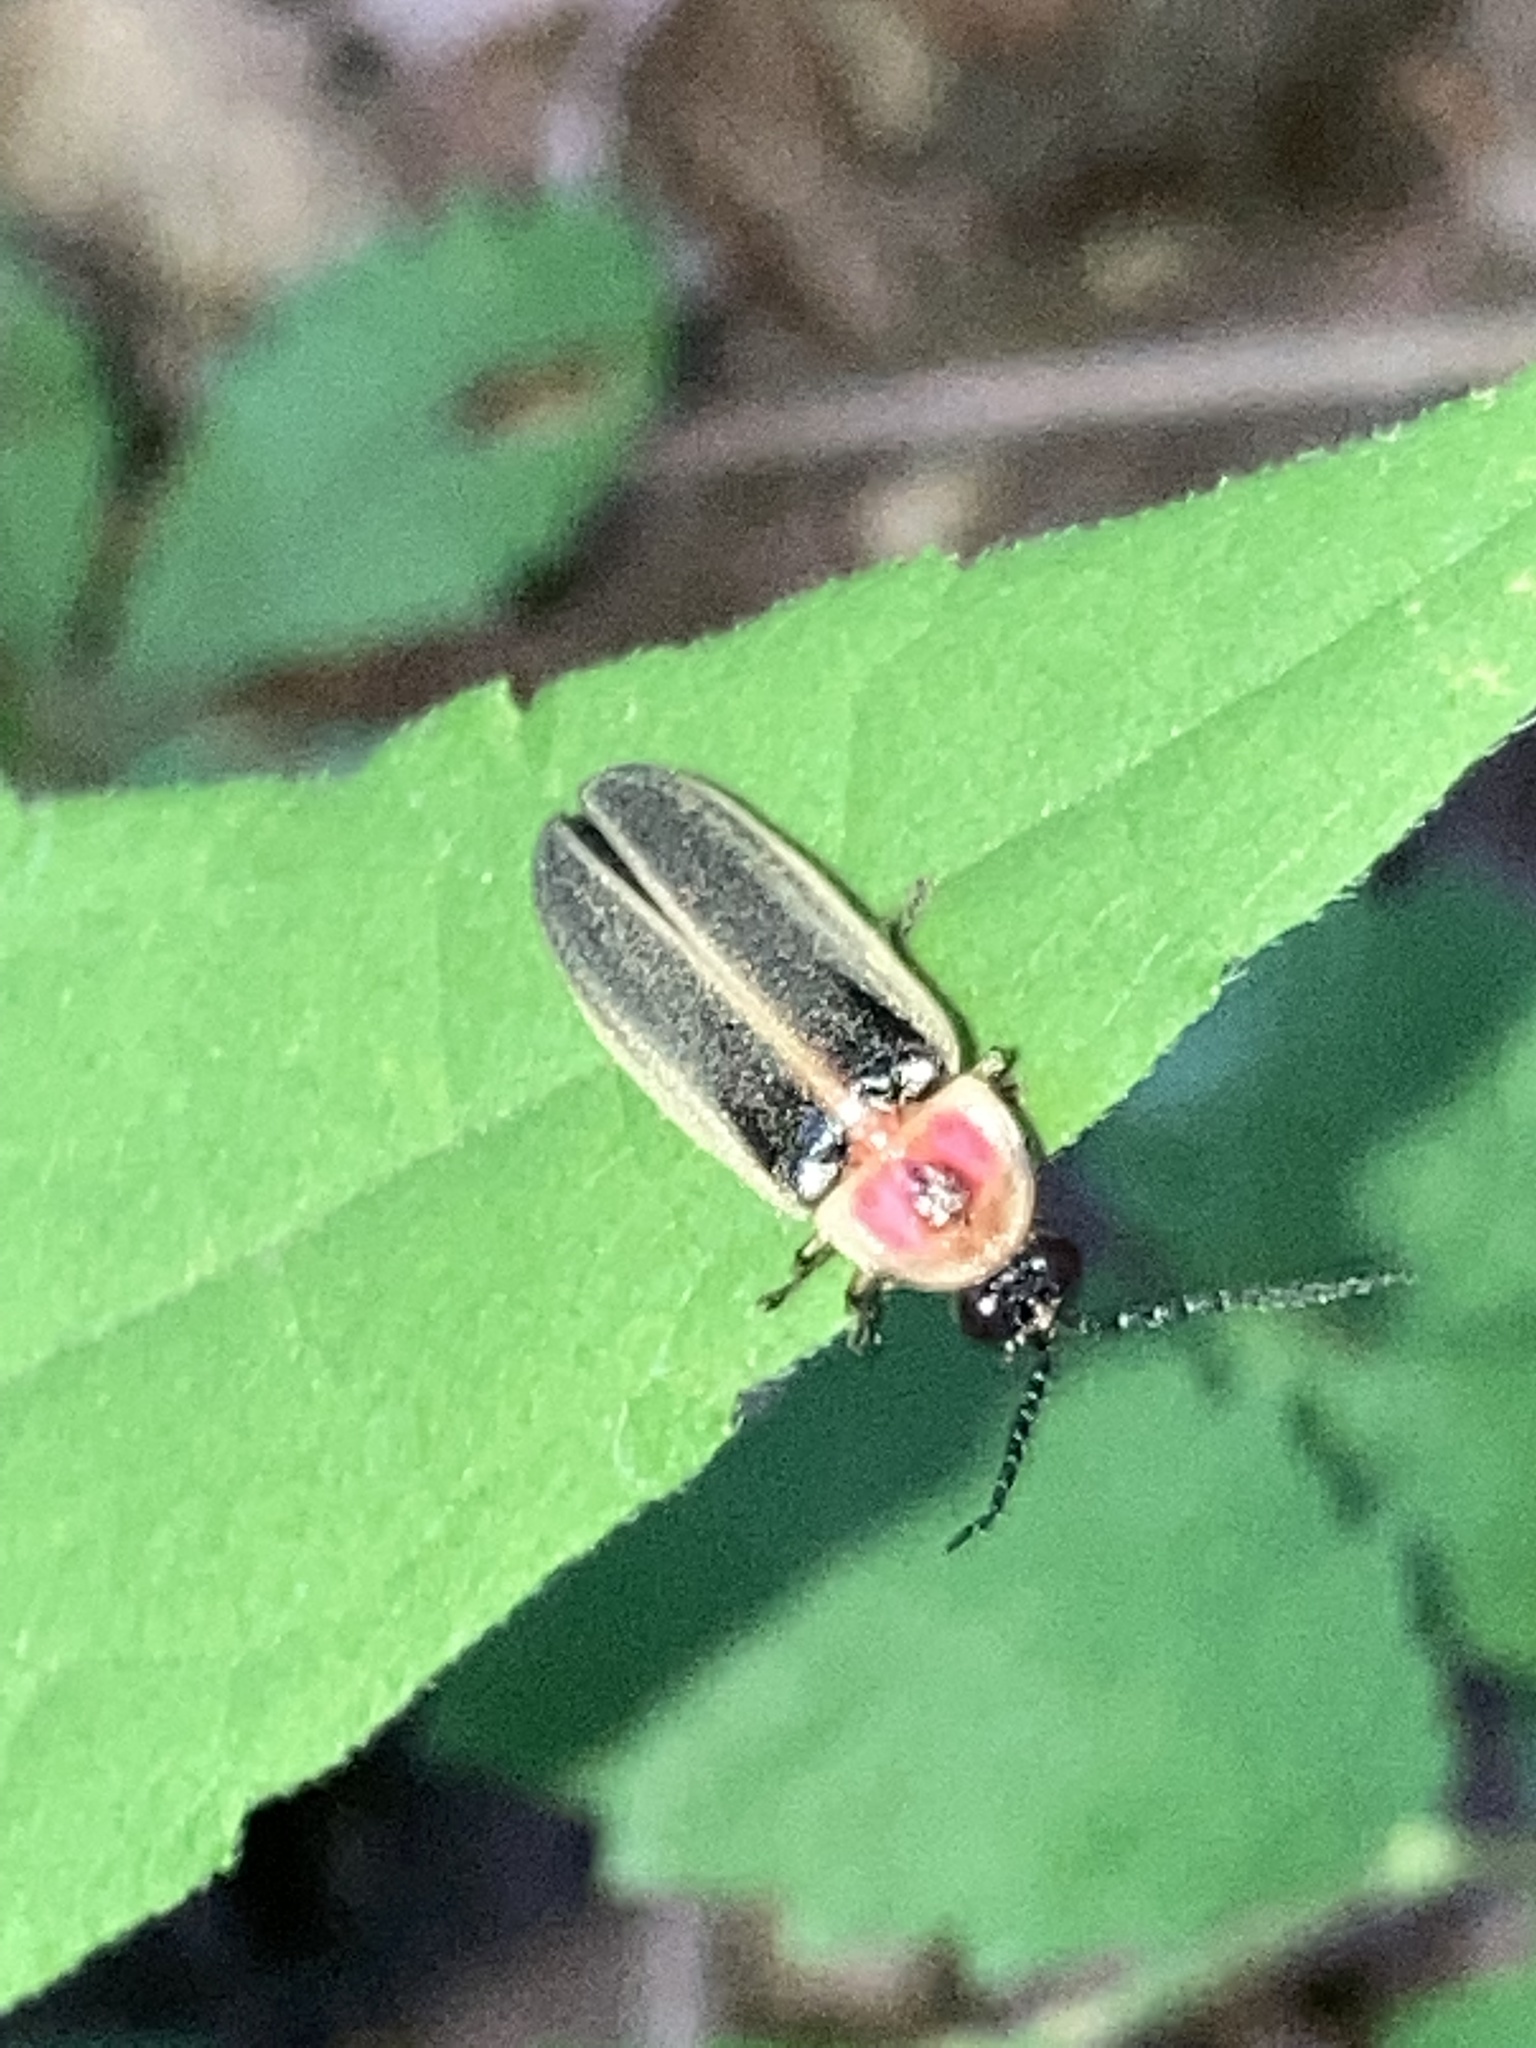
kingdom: Animalia
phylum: Arthropoda
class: Insecta
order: Coleoptera
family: Lampyridae
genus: Photinus
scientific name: Photinus pyralis
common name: Big dipper firefly
